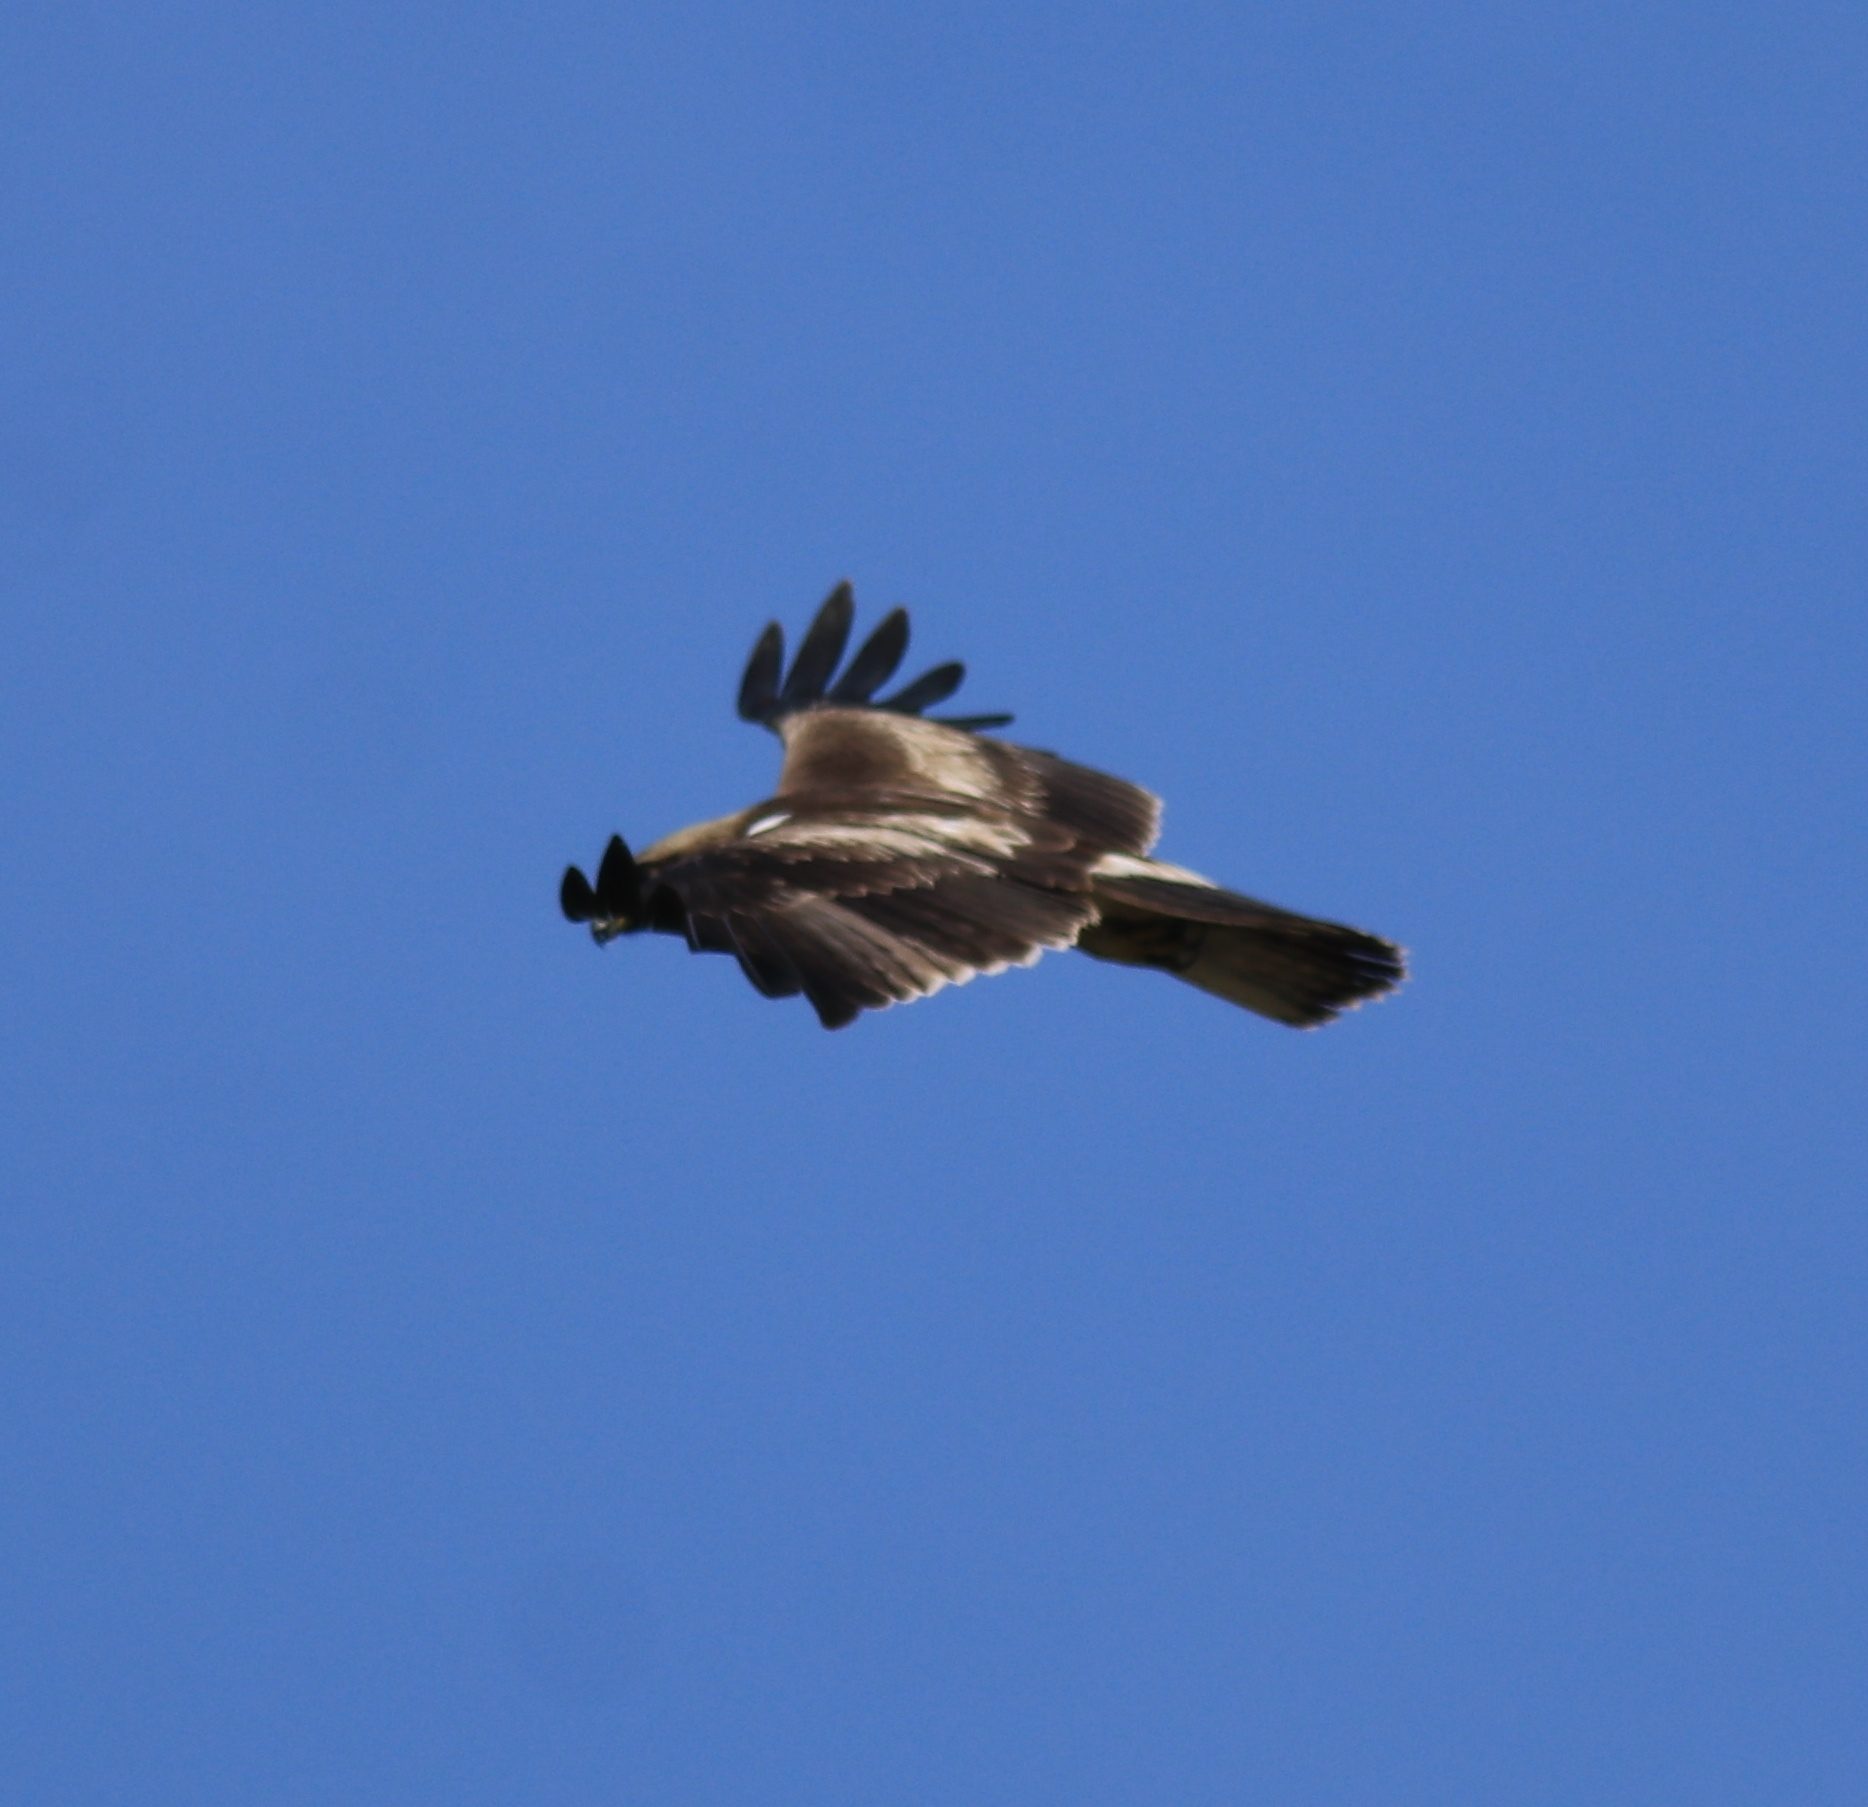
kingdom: Animalia
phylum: Chordata
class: Aves
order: Accipitriformes
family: Accipitridae
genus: Hieraaetus
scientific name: Hieraaetus pennatus
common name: Booted eagle
